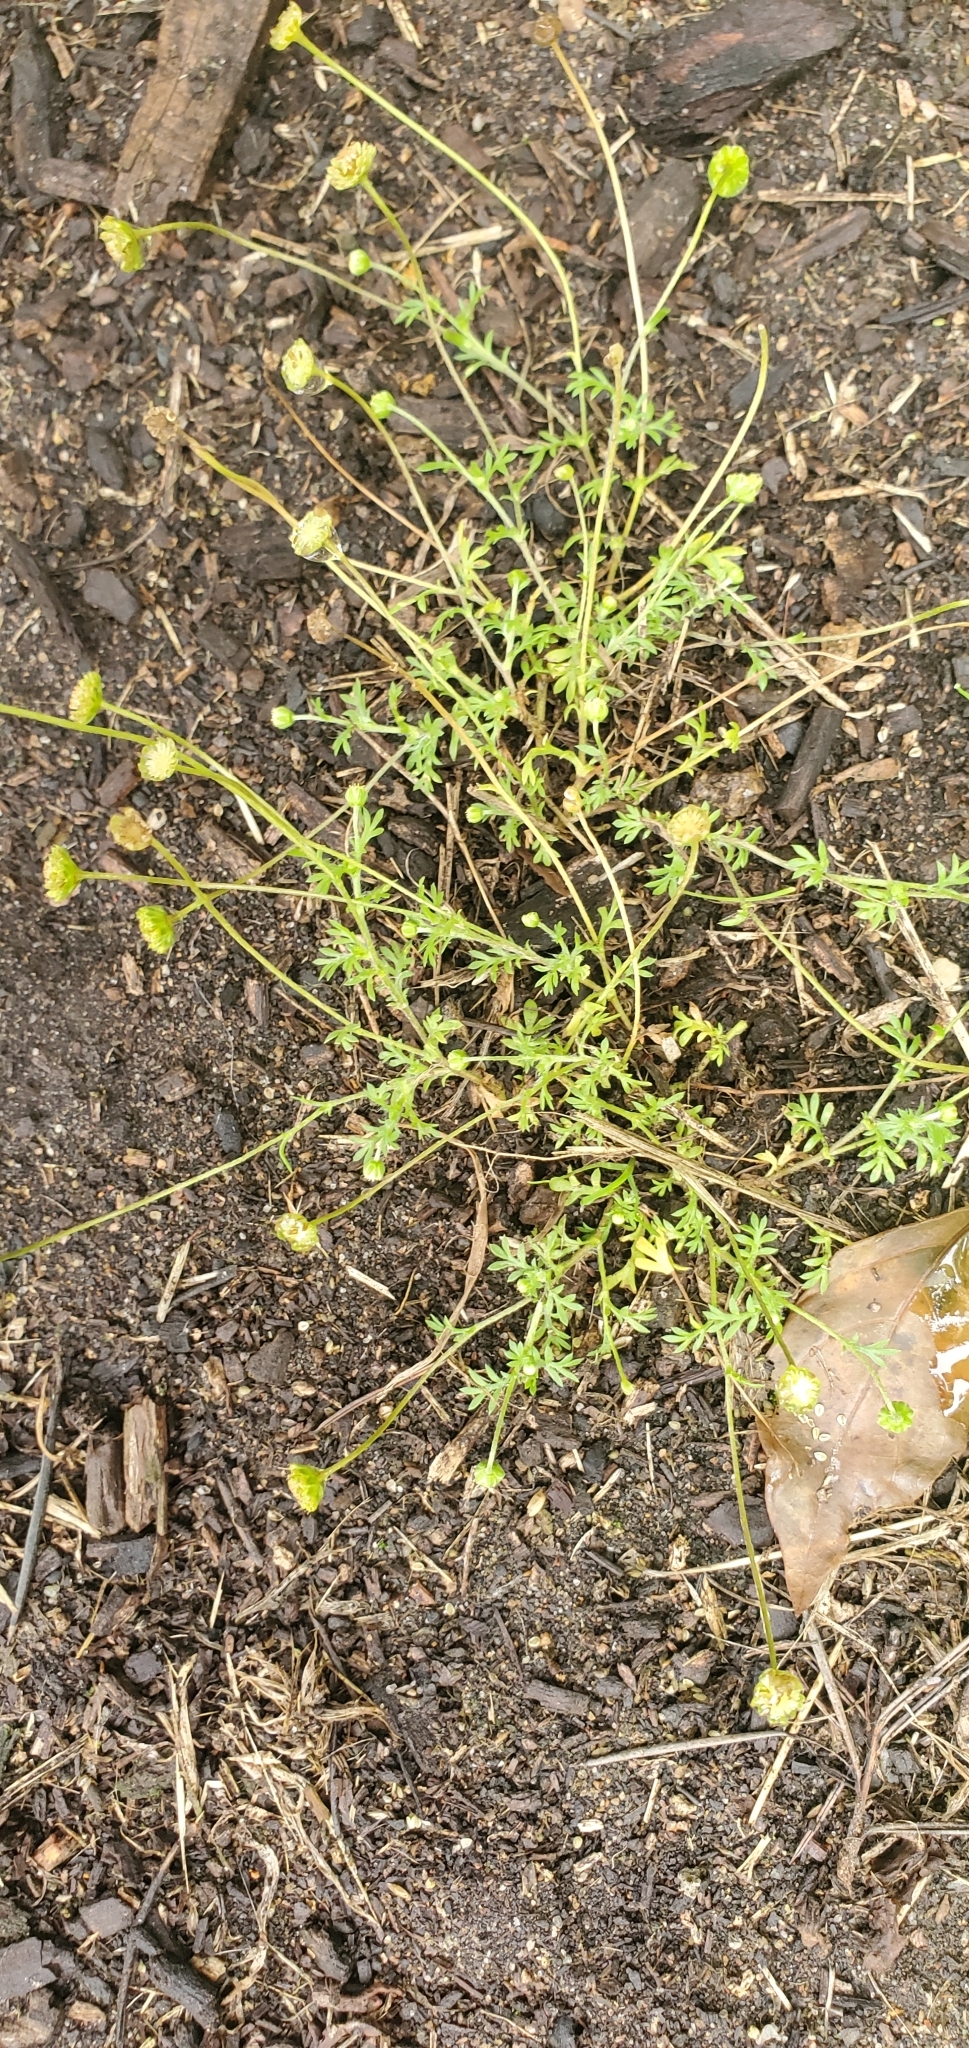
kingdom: Plantae
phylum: Tracheophyta
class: Magnoliopsida
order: Asterales
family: Asteraceae
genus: Cotula
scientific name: Cotula australis
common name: Australian waterbuttons
